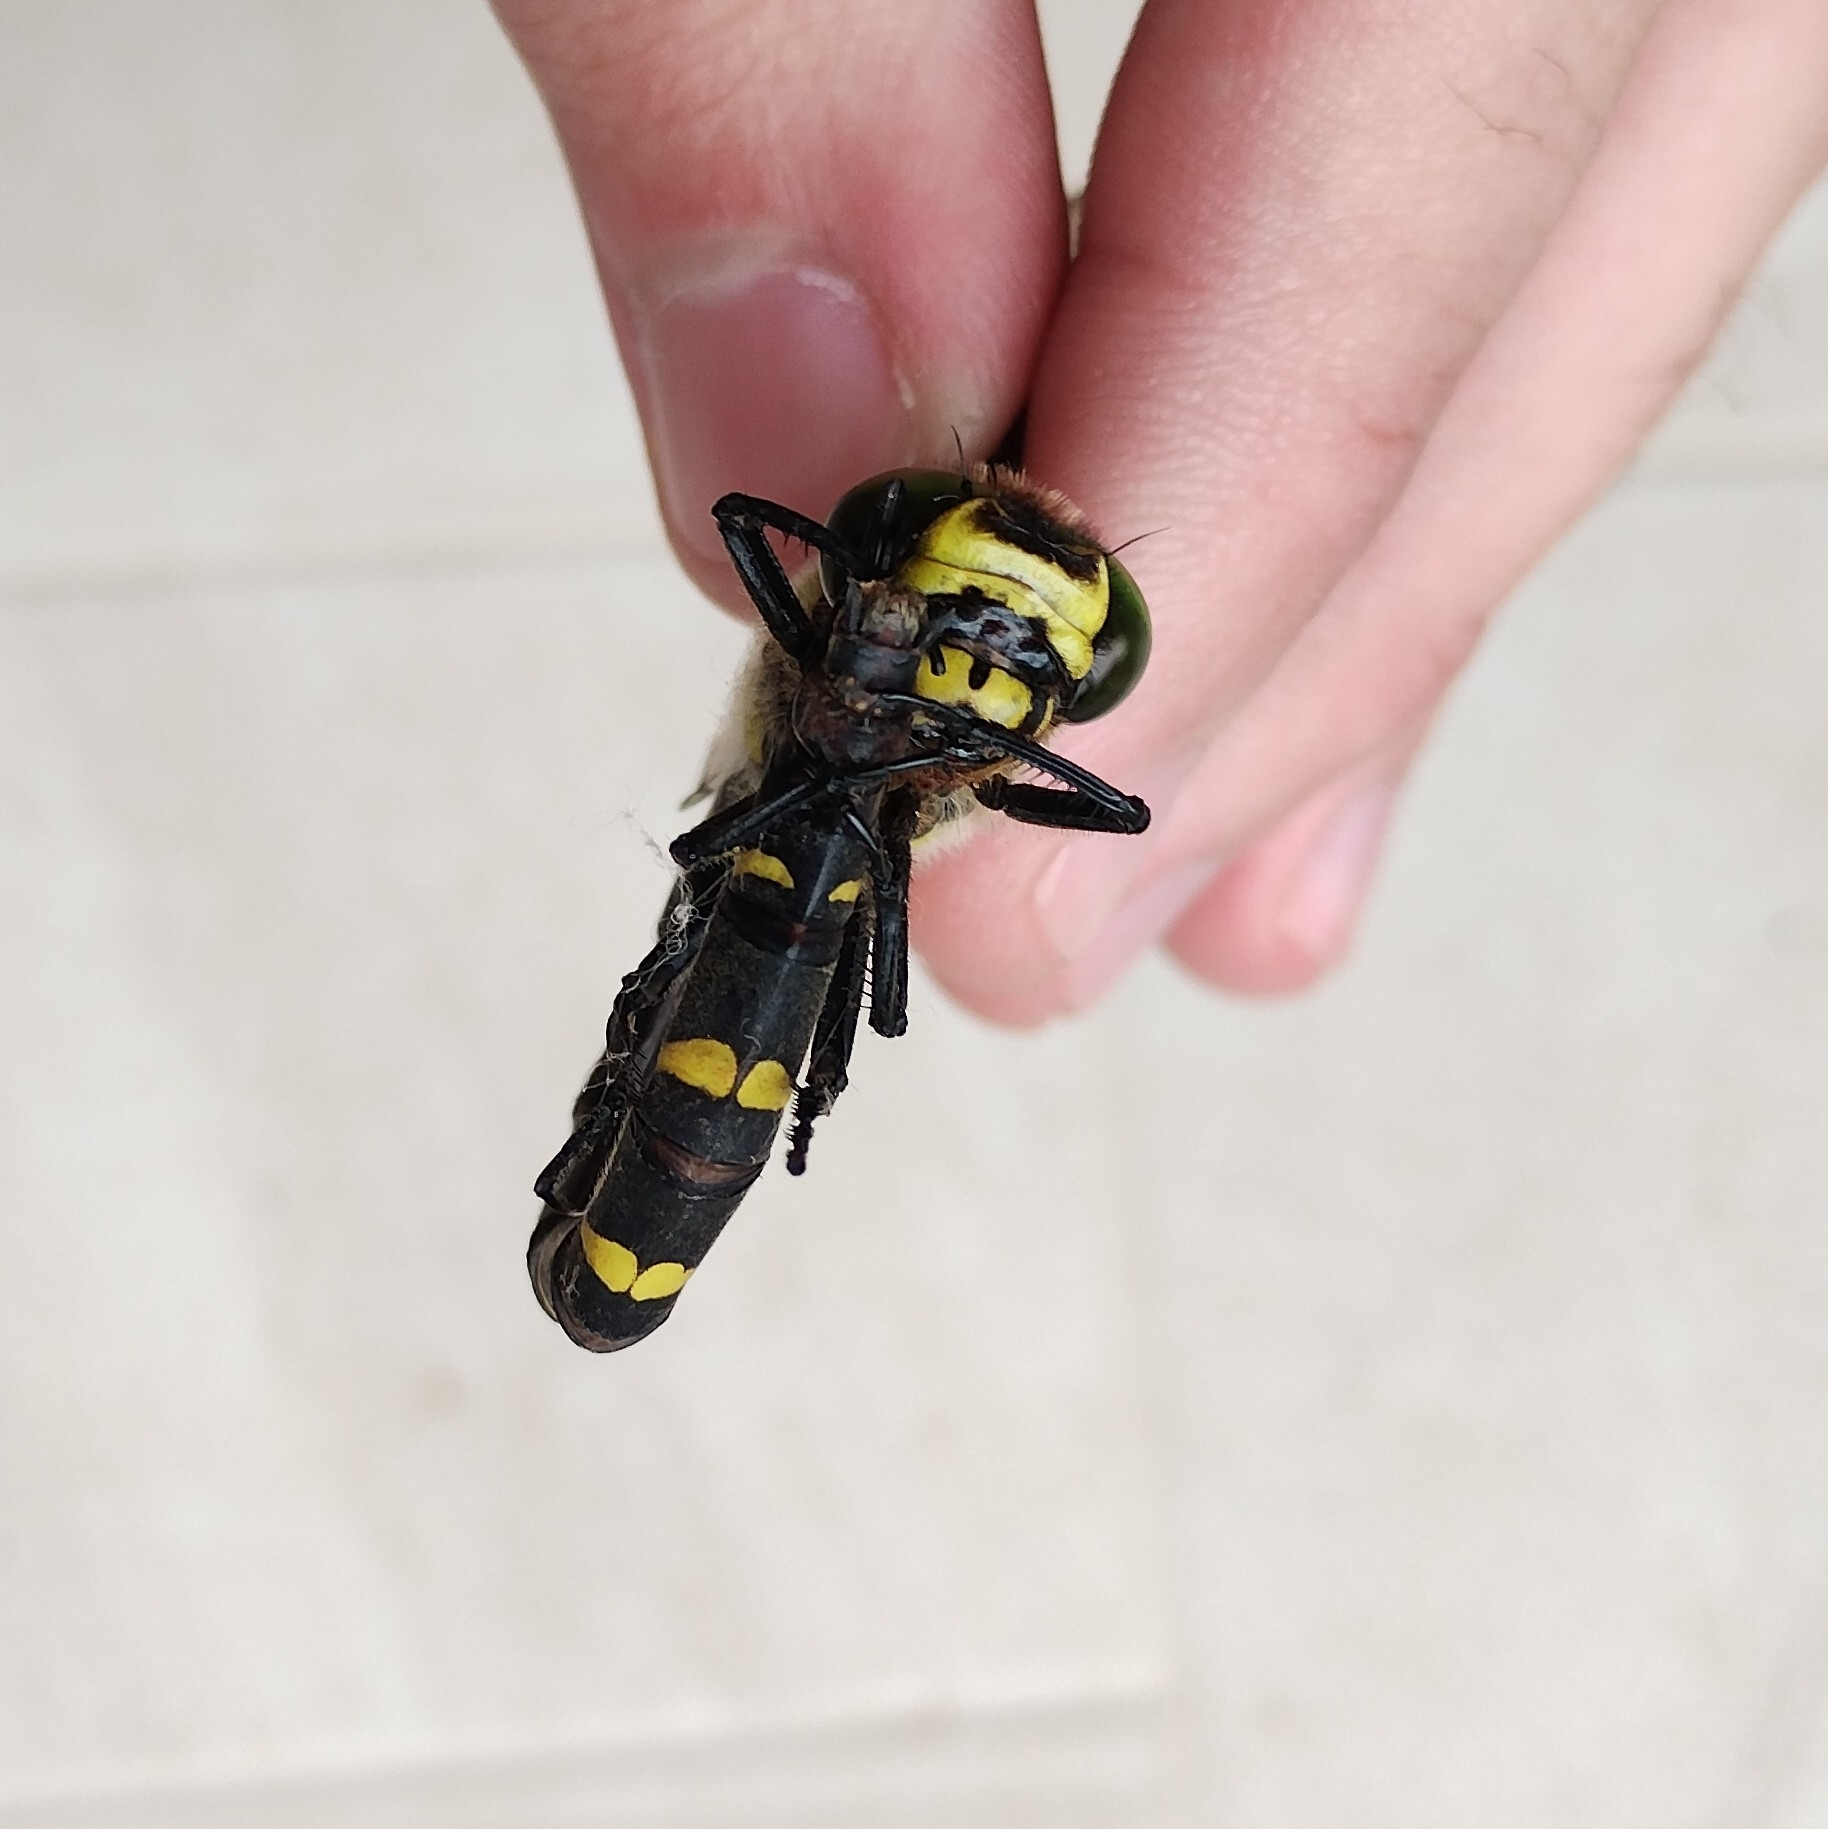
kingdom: Animalia
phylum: Arthropoda
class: Insecta
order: Odonata
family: Cordulegastridae
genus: Cordulegaster
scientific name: Cordulegaster bidentata
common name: Sombre goldenring
